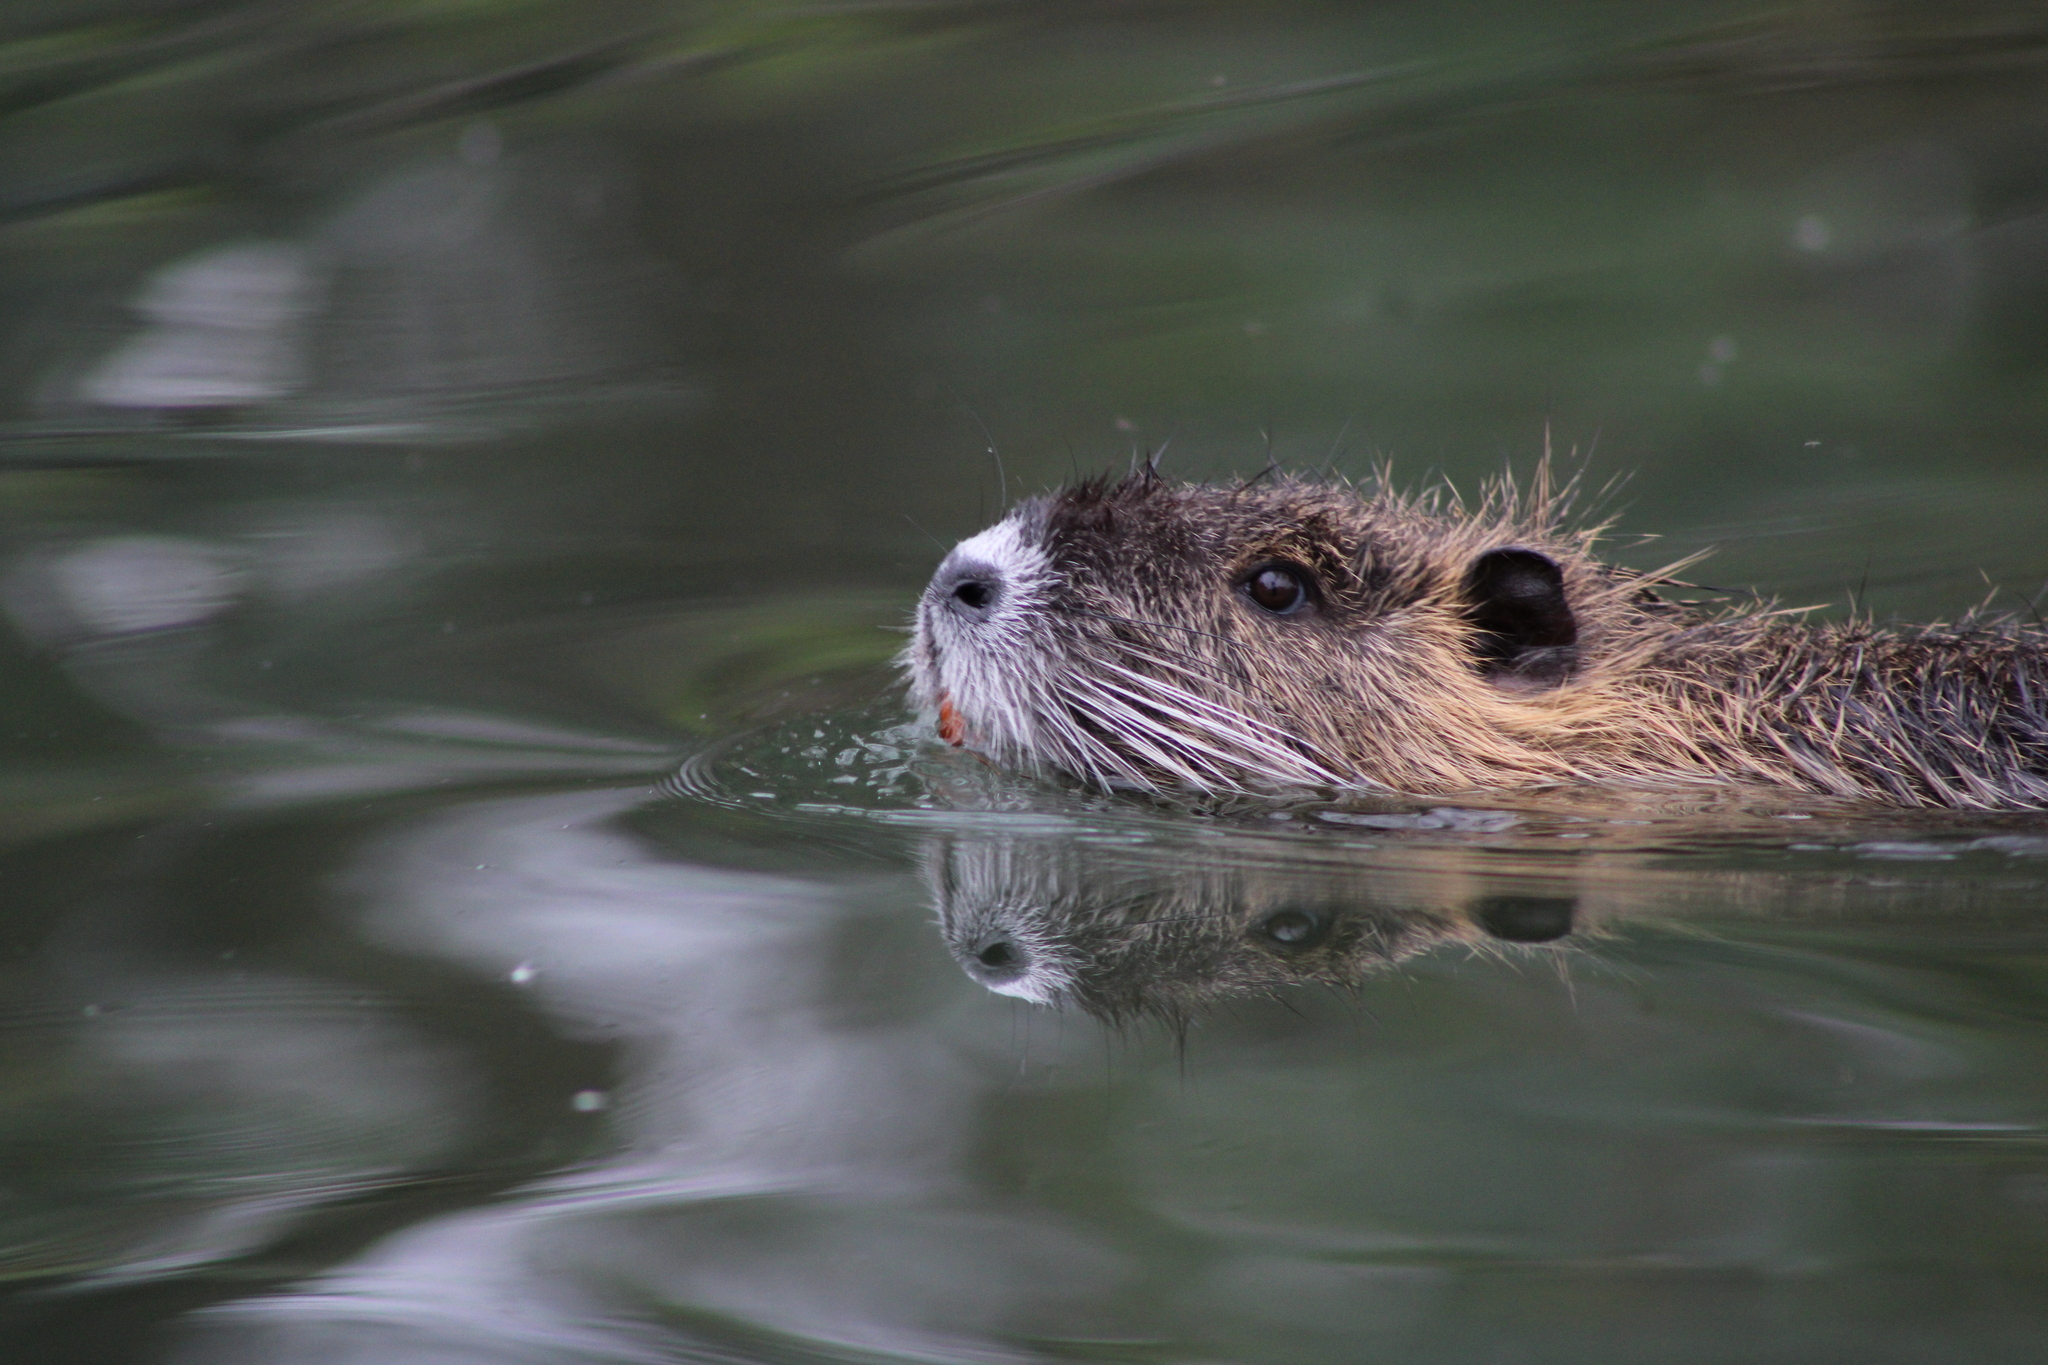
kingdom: Animalia
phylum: Chordata
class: Mammalia
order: Rodentia
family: Myocastoridae
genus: Myocastor
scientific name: Myocastor coypus
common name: Coypu
